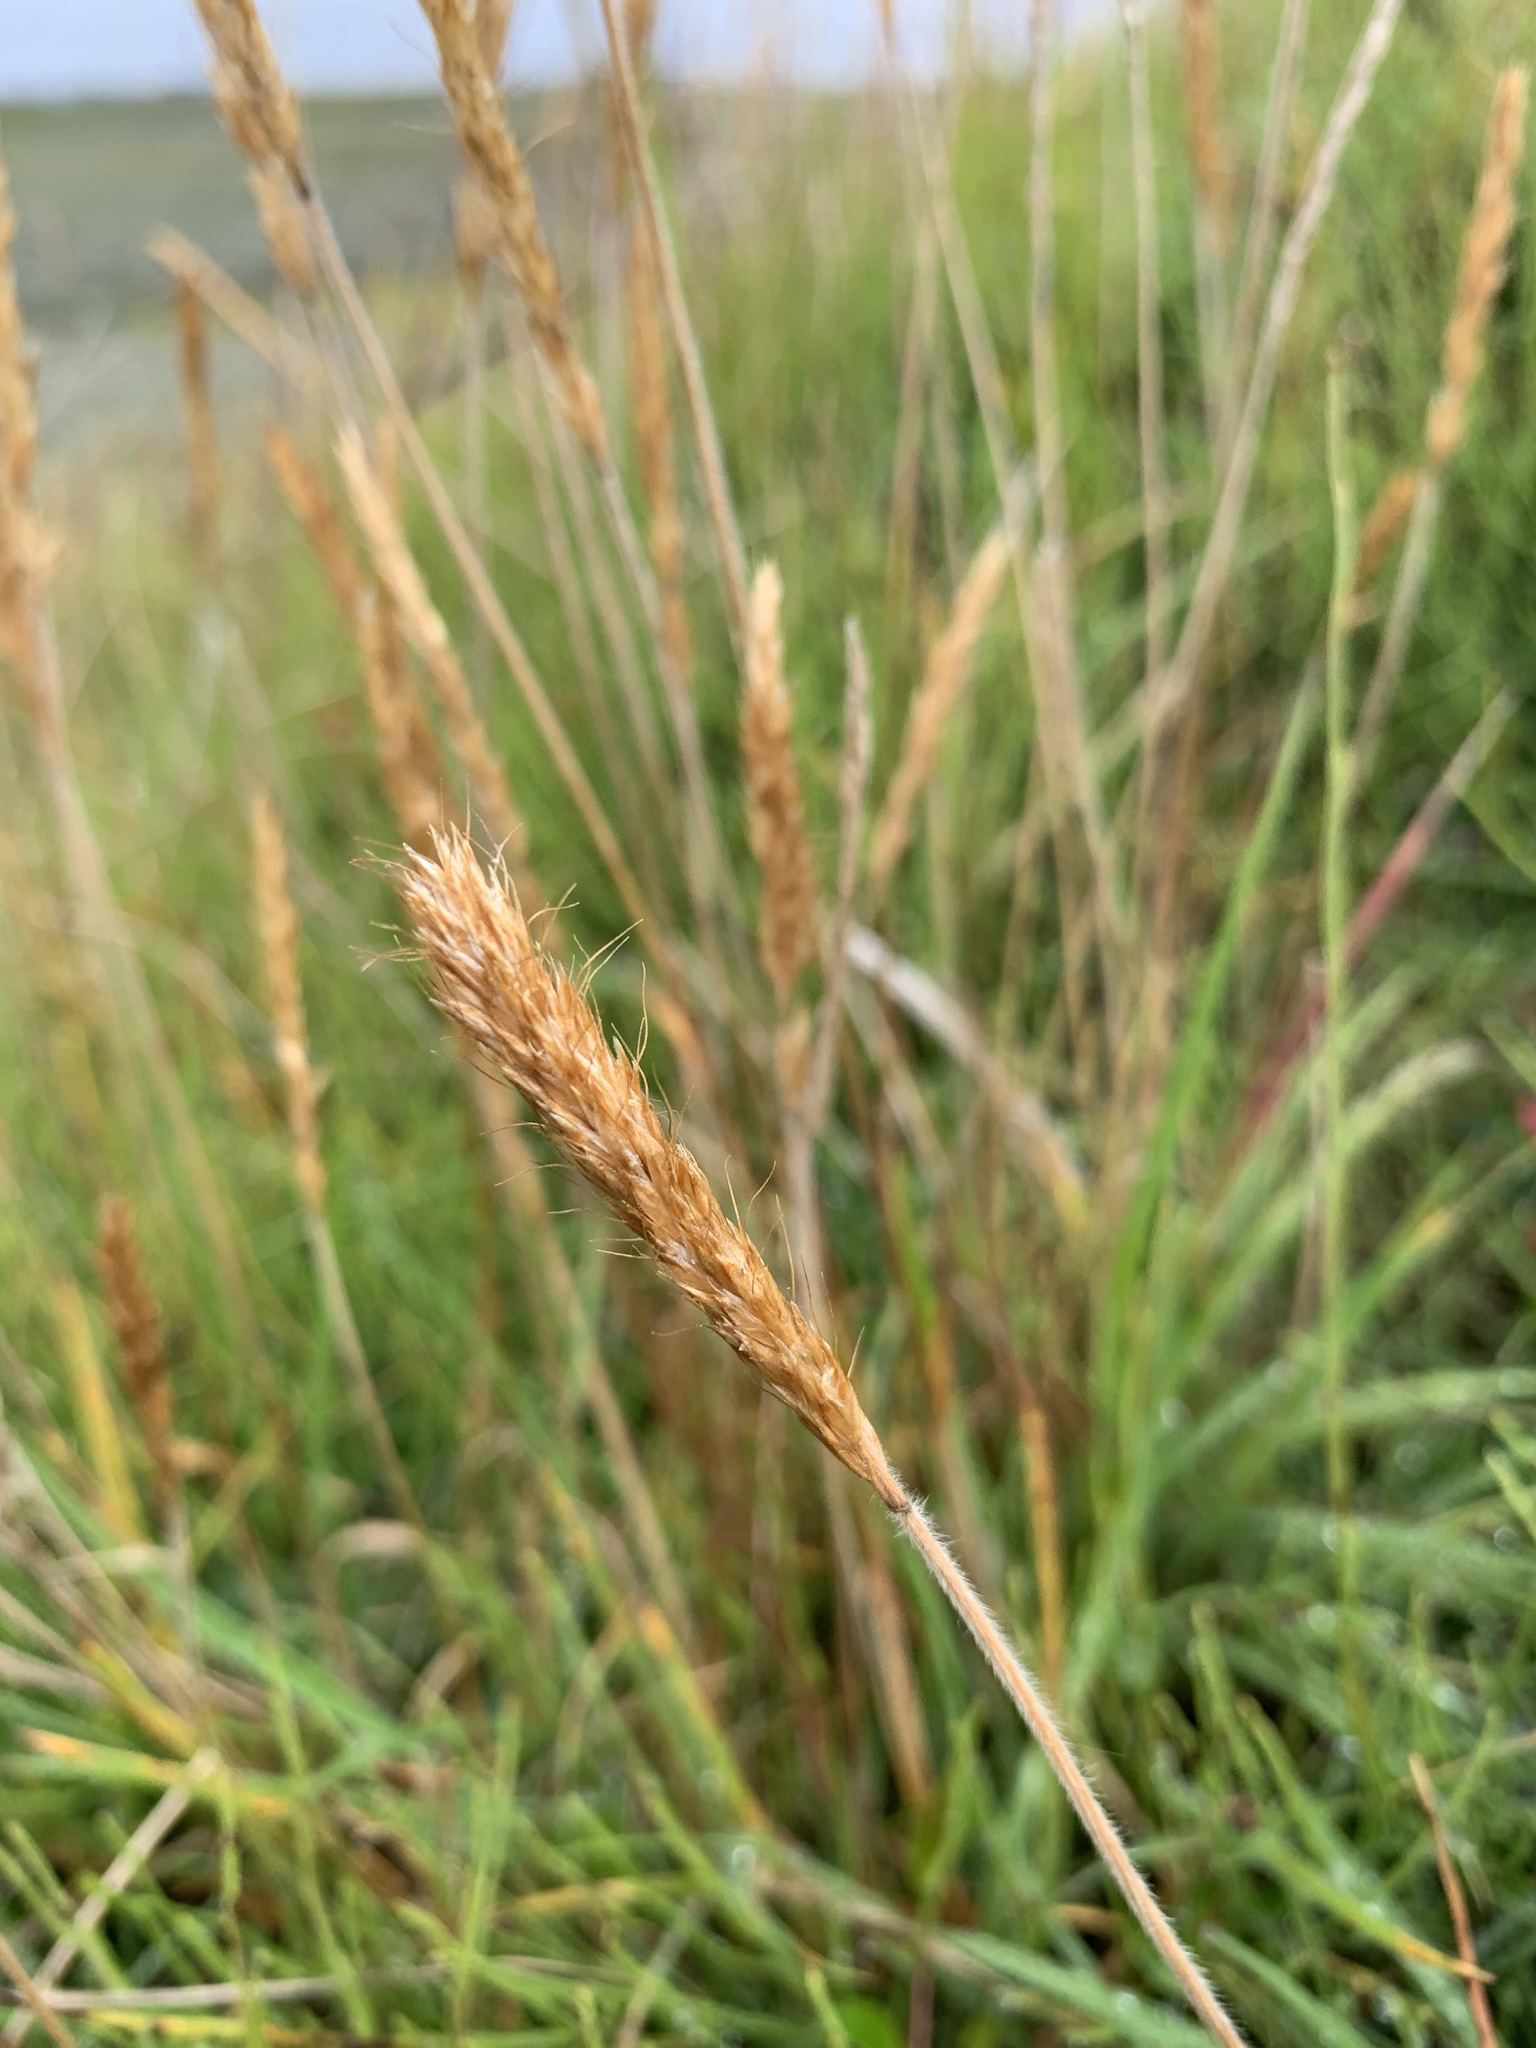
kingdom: Plantae
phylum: Tracheophyta
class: Liliopsida
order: Poales
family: Poaceae
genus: Koeleria
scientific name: Koeleria spicata
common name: Mountain trisetum
